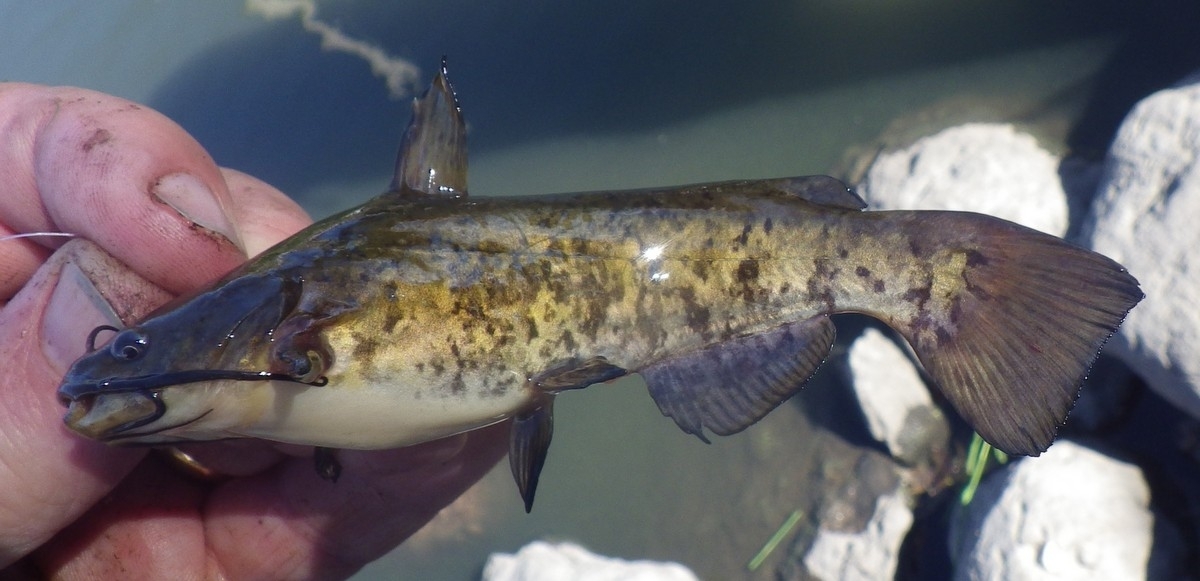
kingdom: Animalia
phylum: Chordata
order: Siluriformes
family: Ictaluridae
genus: Ameiurus
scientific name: Ameiurus nebulosus
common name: Brown bullhead
